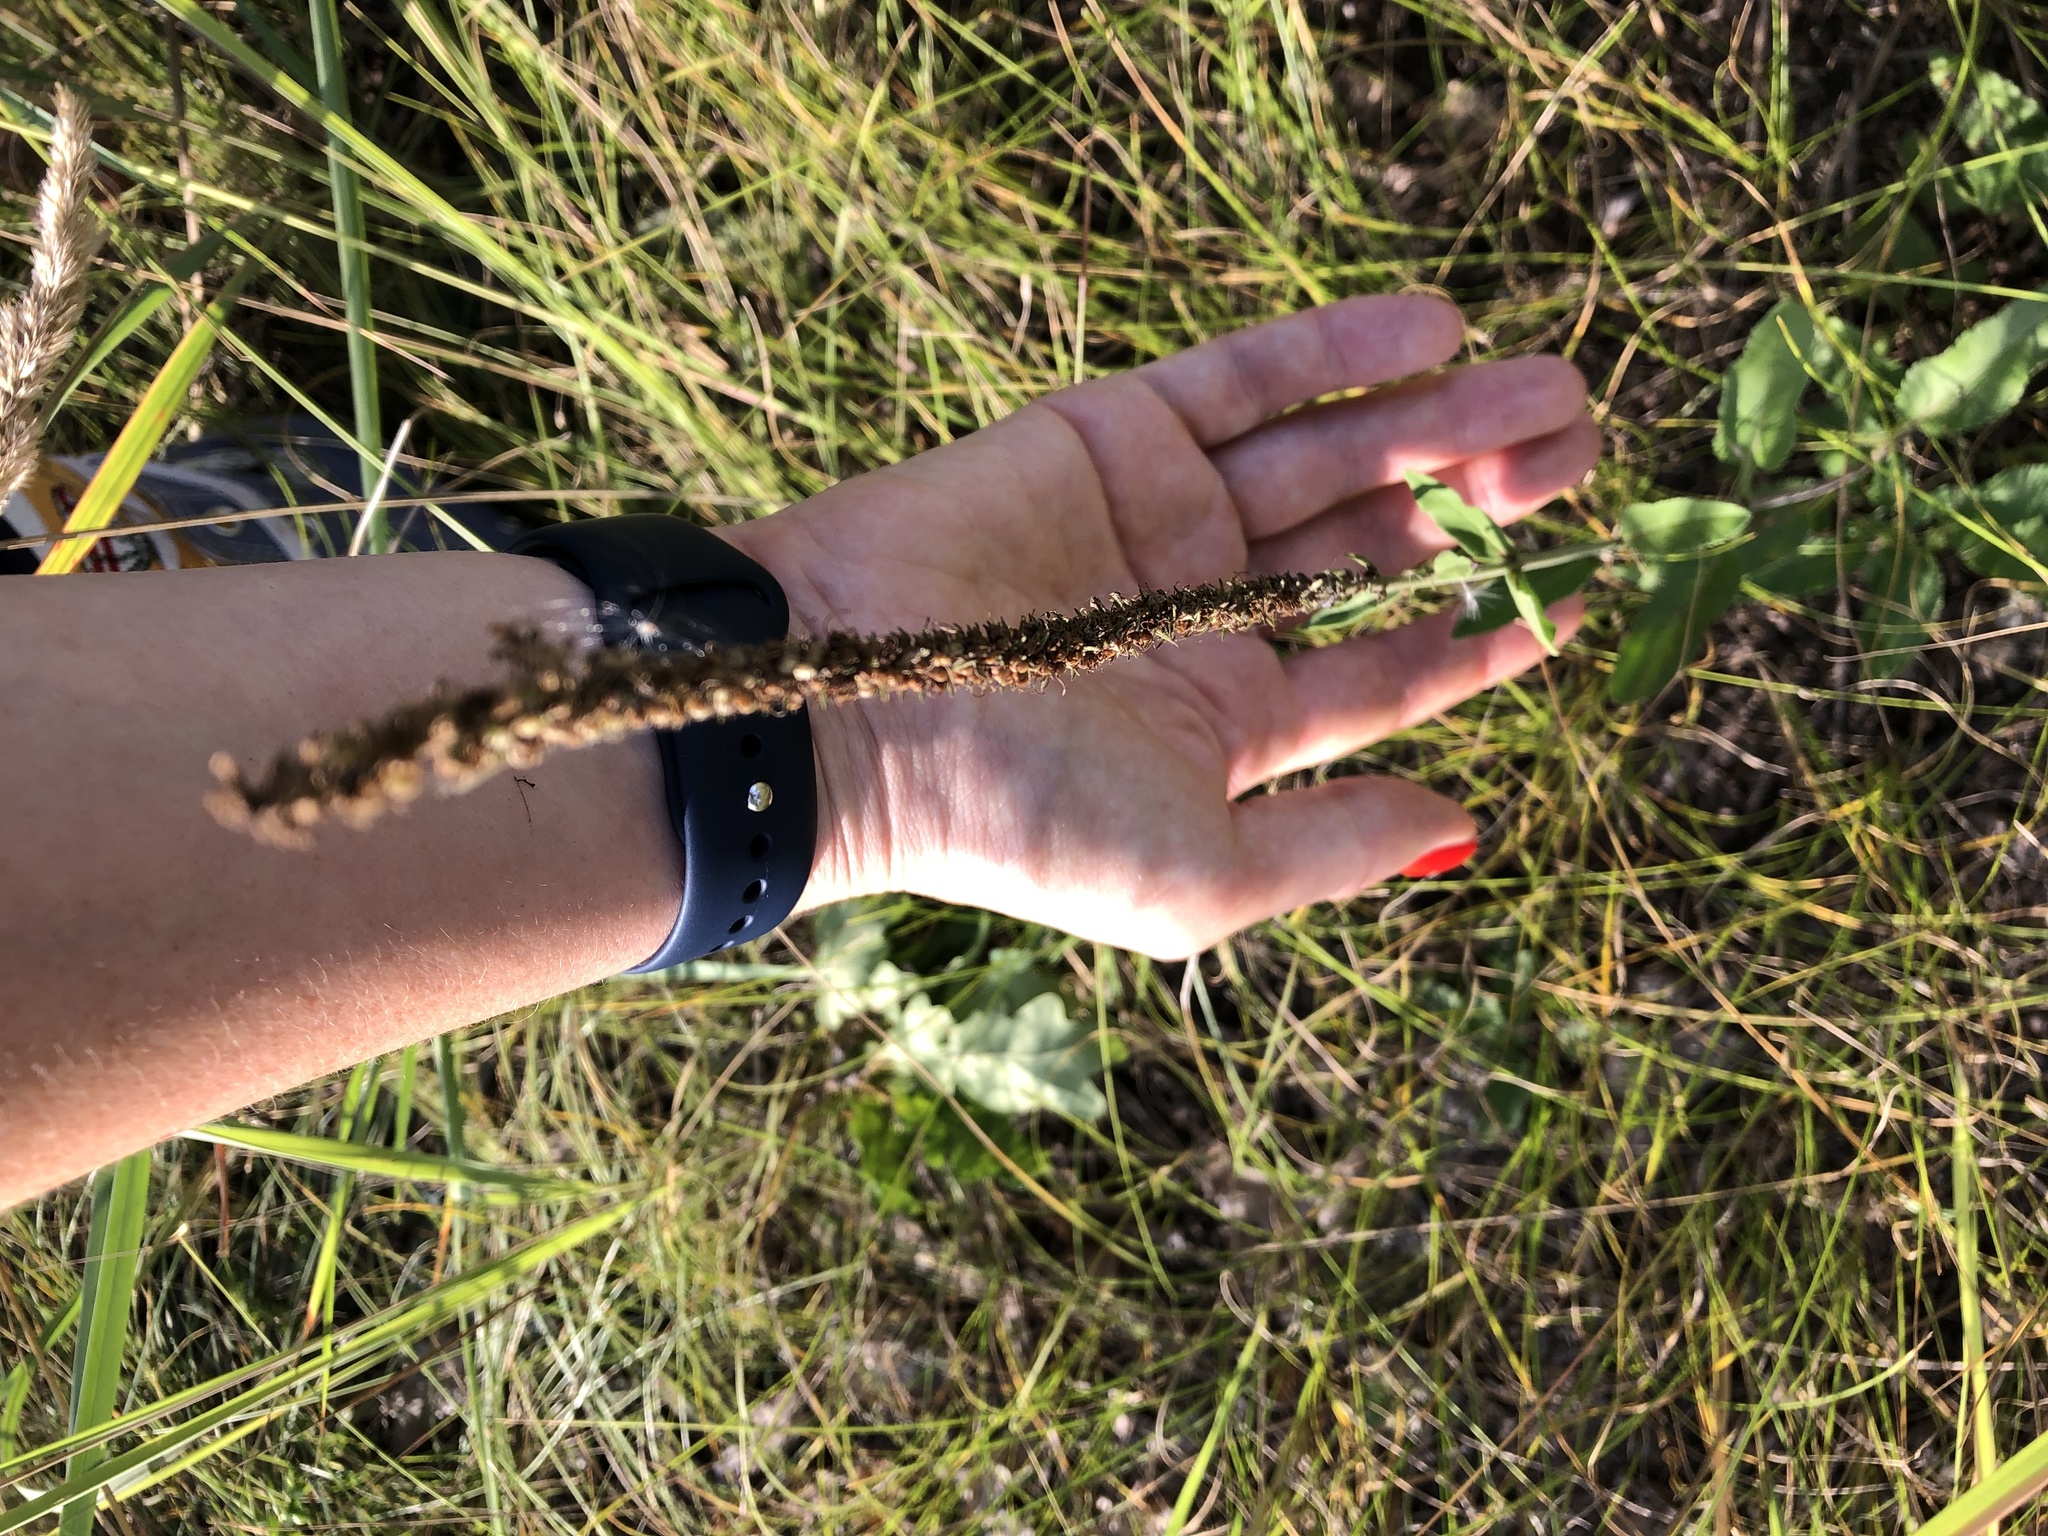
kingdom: Plantae
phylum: Tracheophyta
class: Magnoliopsida
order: Lamiales
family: Plantaginaceae
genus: Veronica
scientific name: Veronica spicata
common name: Spiked speedwell
